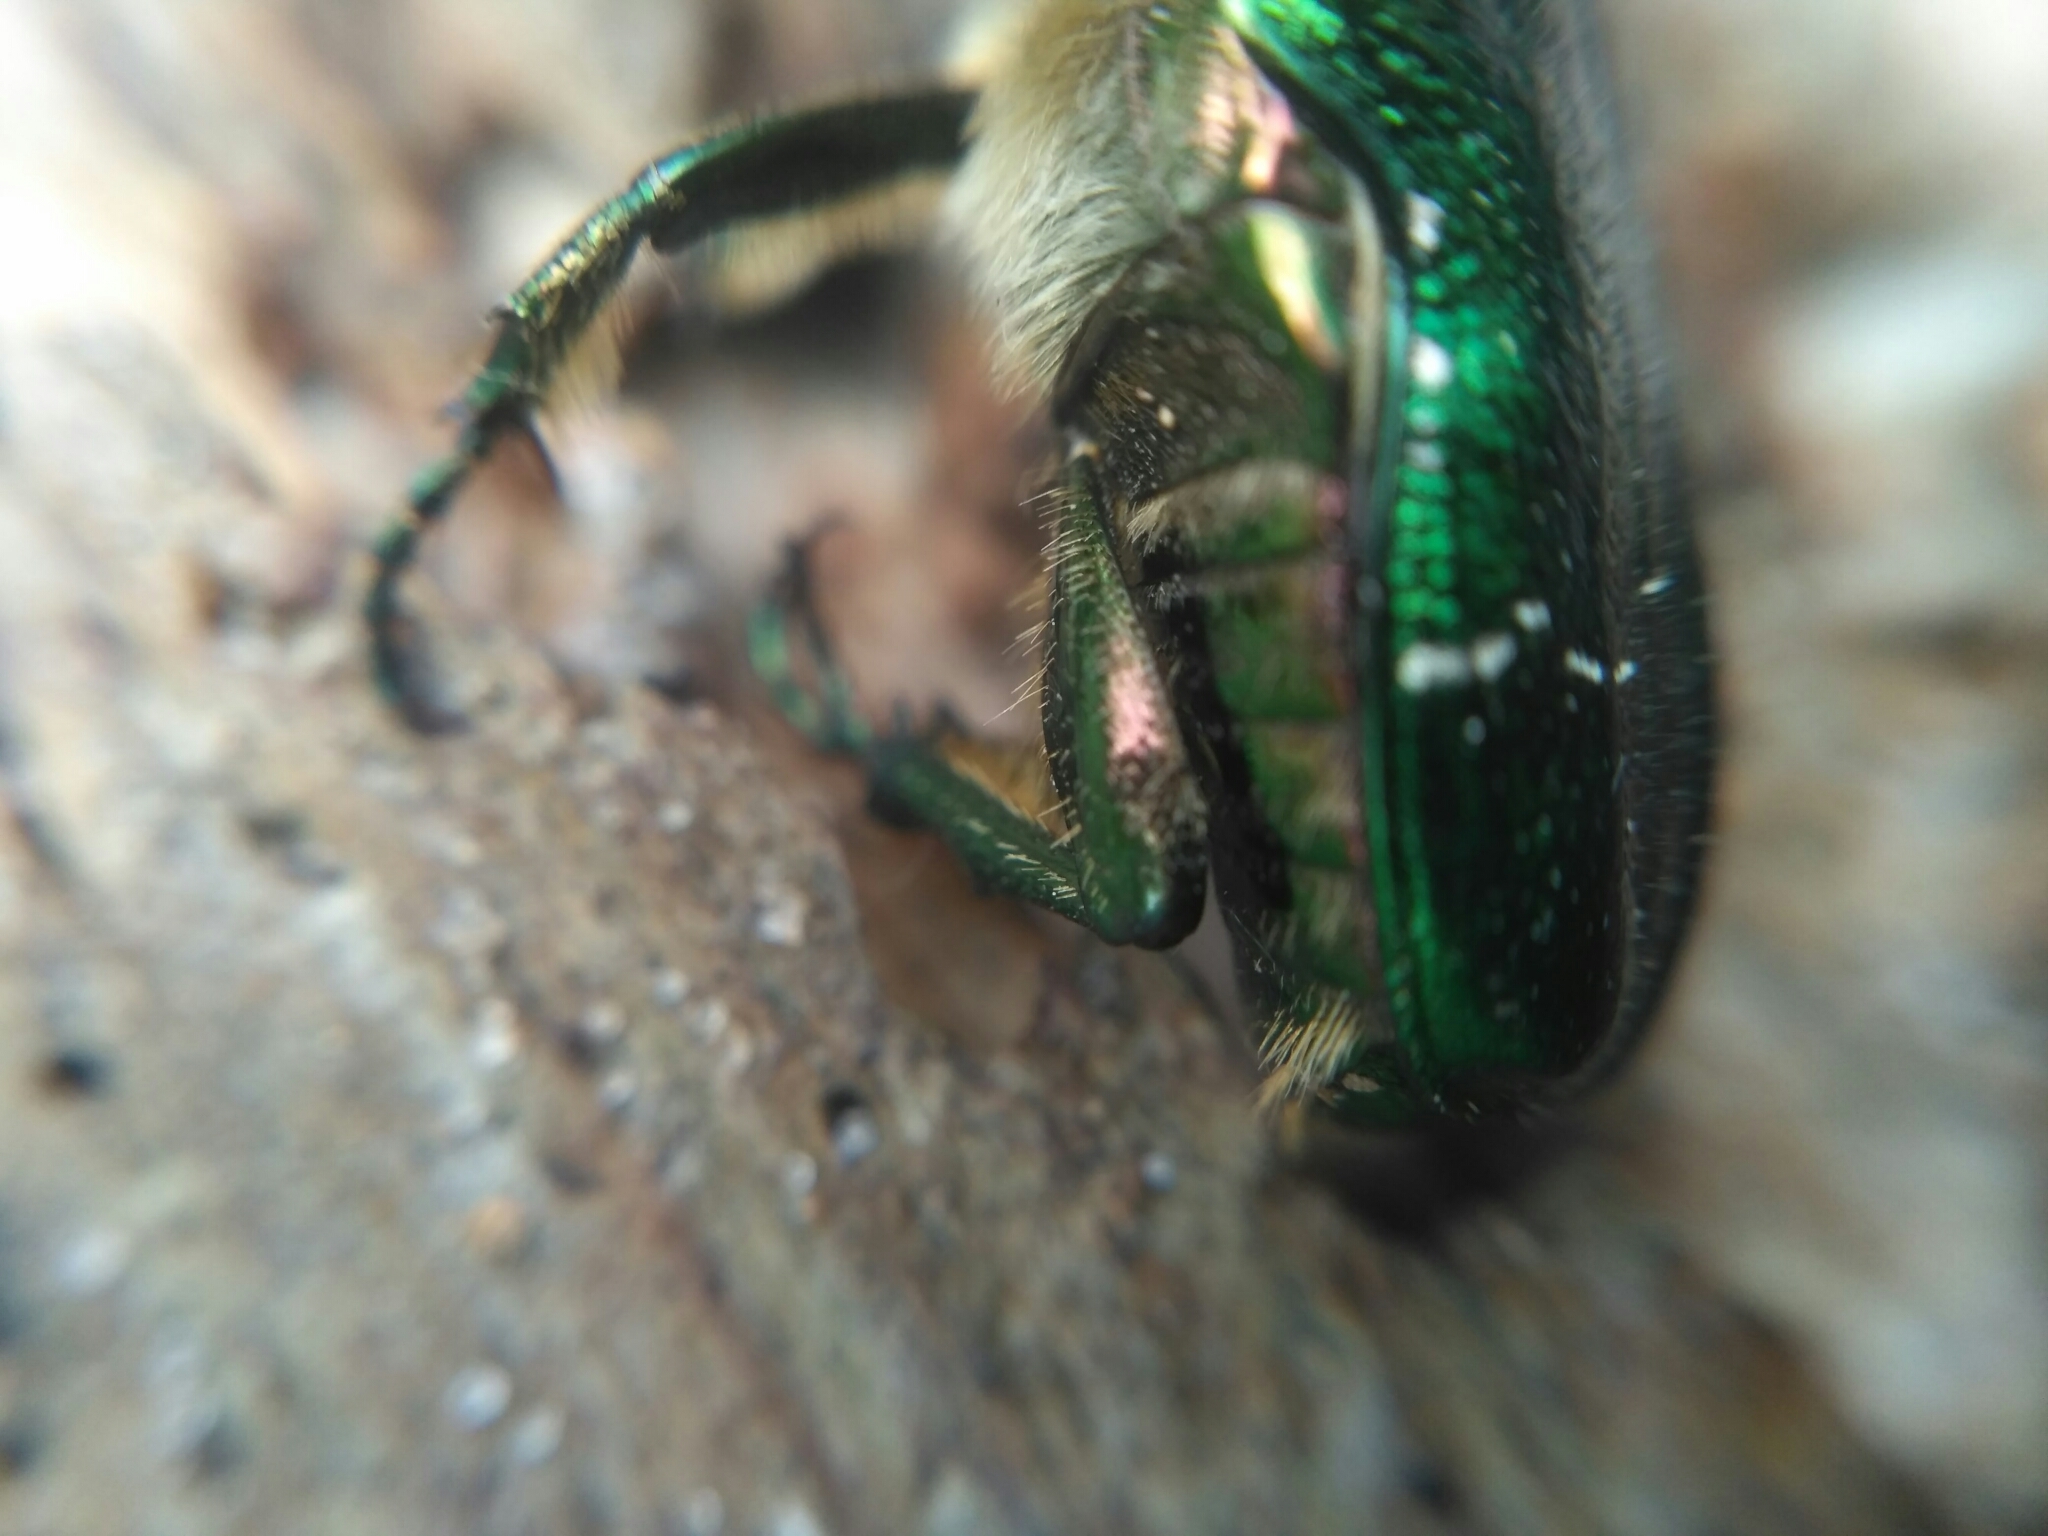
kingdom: Animalia
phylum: Arthropoda
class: Insecta
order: Coleoptera
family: Scarabaeidae
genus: Cetonia
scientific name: Cetonia aurata
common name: Rose chafer
